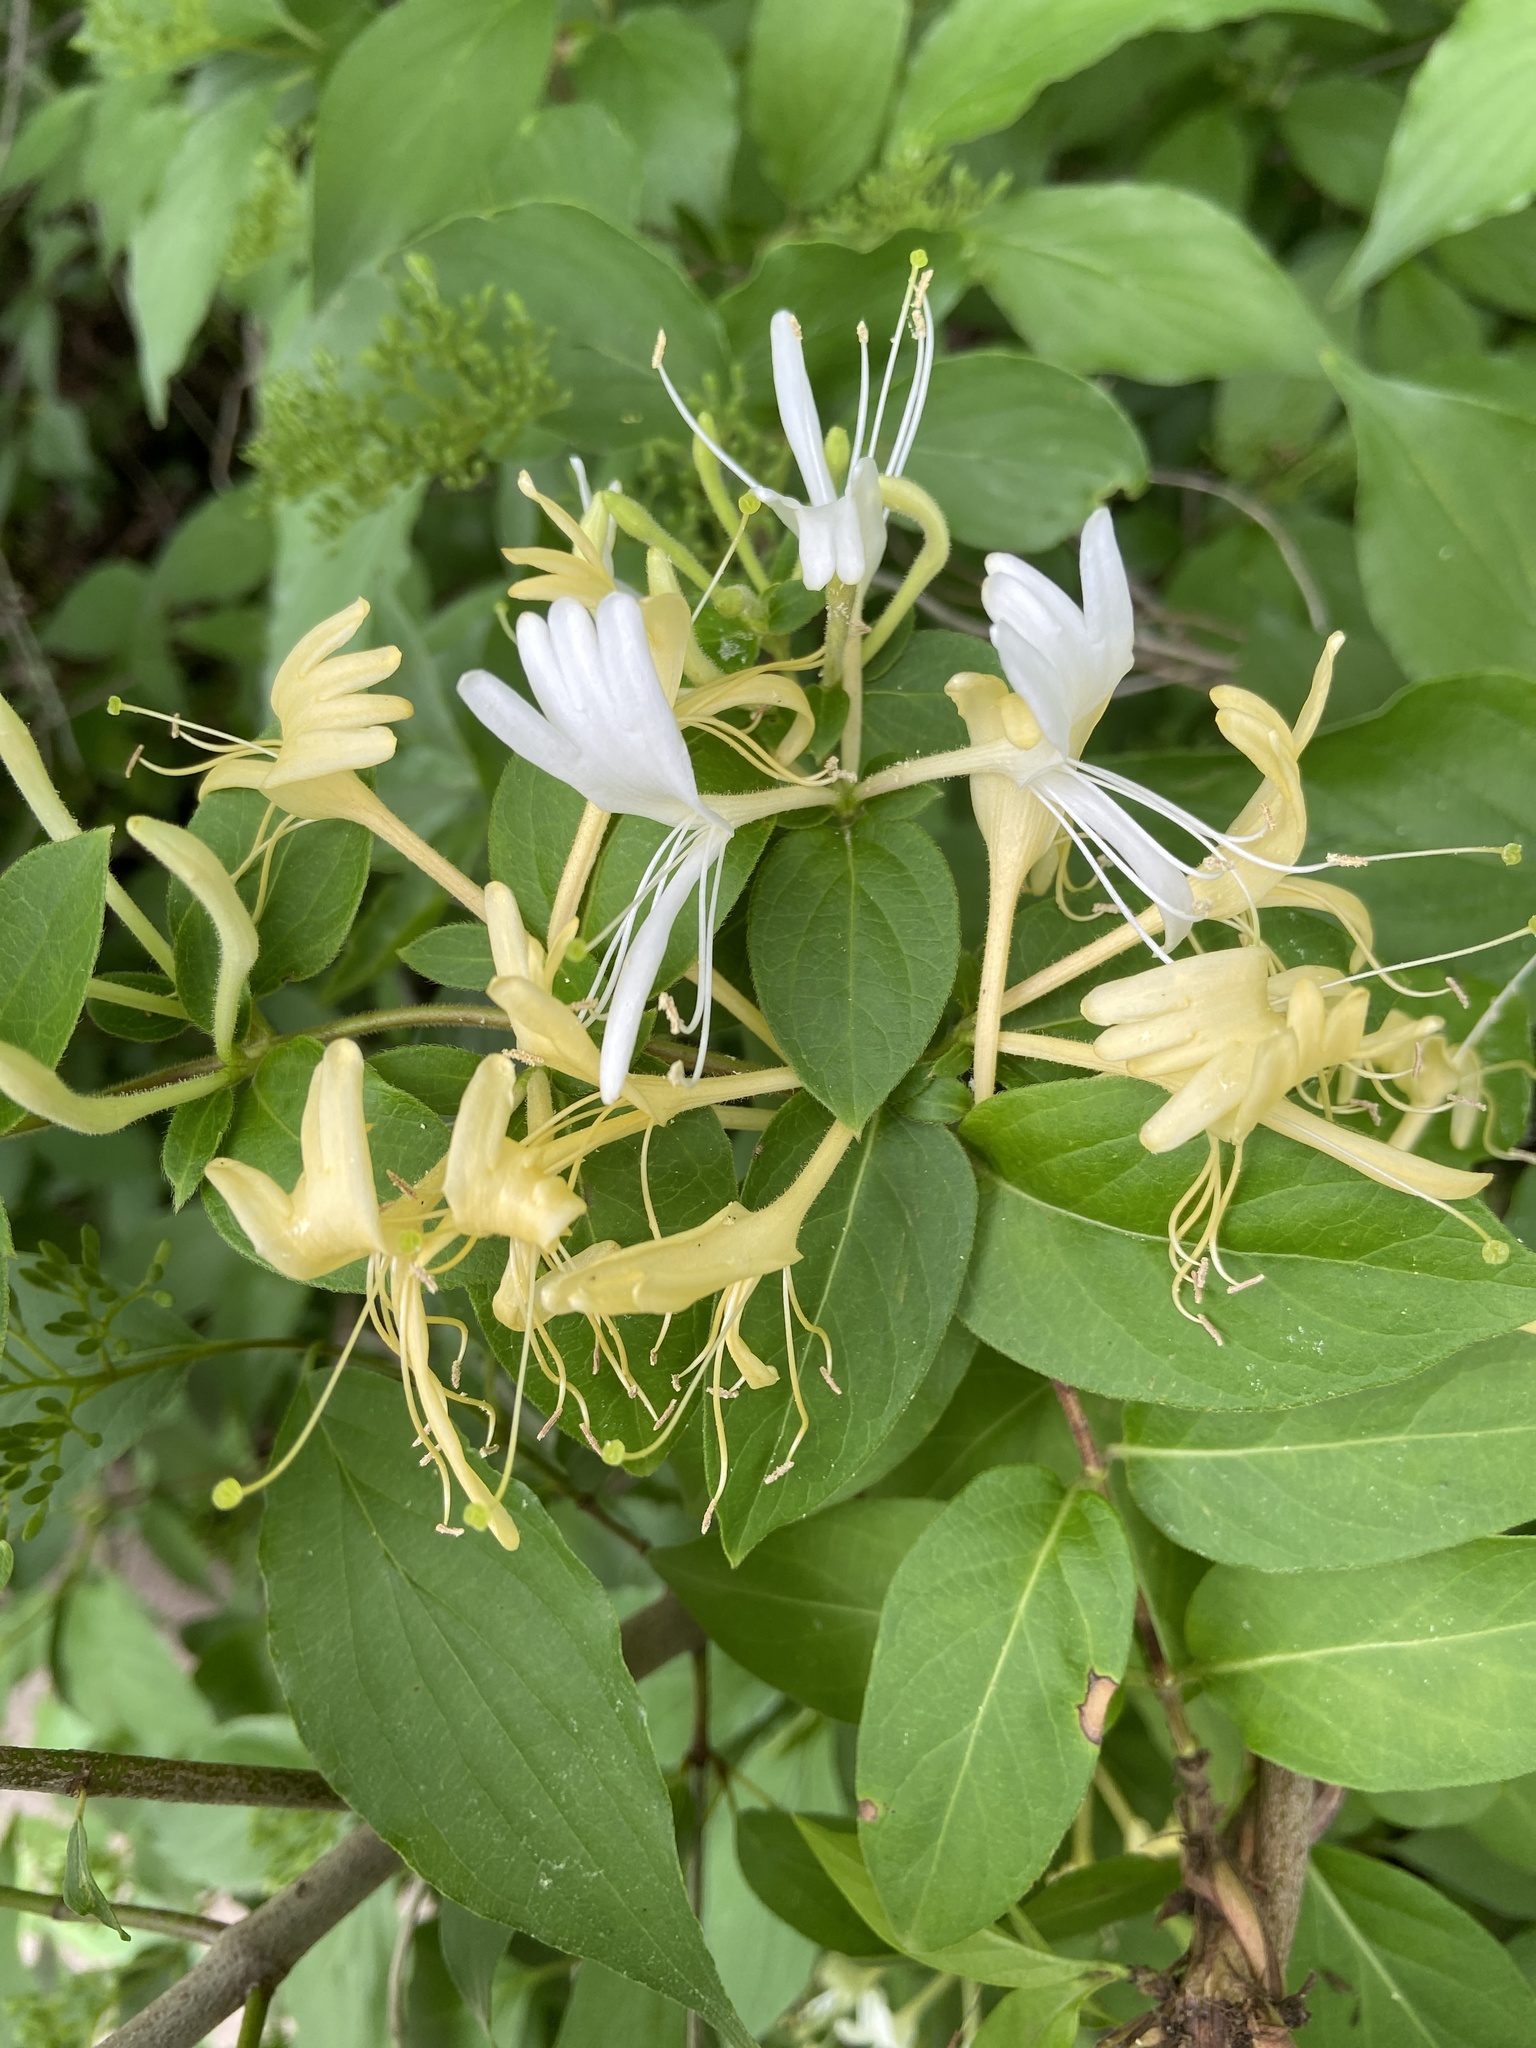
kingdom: Plantae
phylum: Tracheophyta
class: Magnoliopsida
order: Dipsacales
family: Caprifoliaceae
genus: Lonicera
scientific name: Lonicera japonica
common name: Japanese honeysuckle
